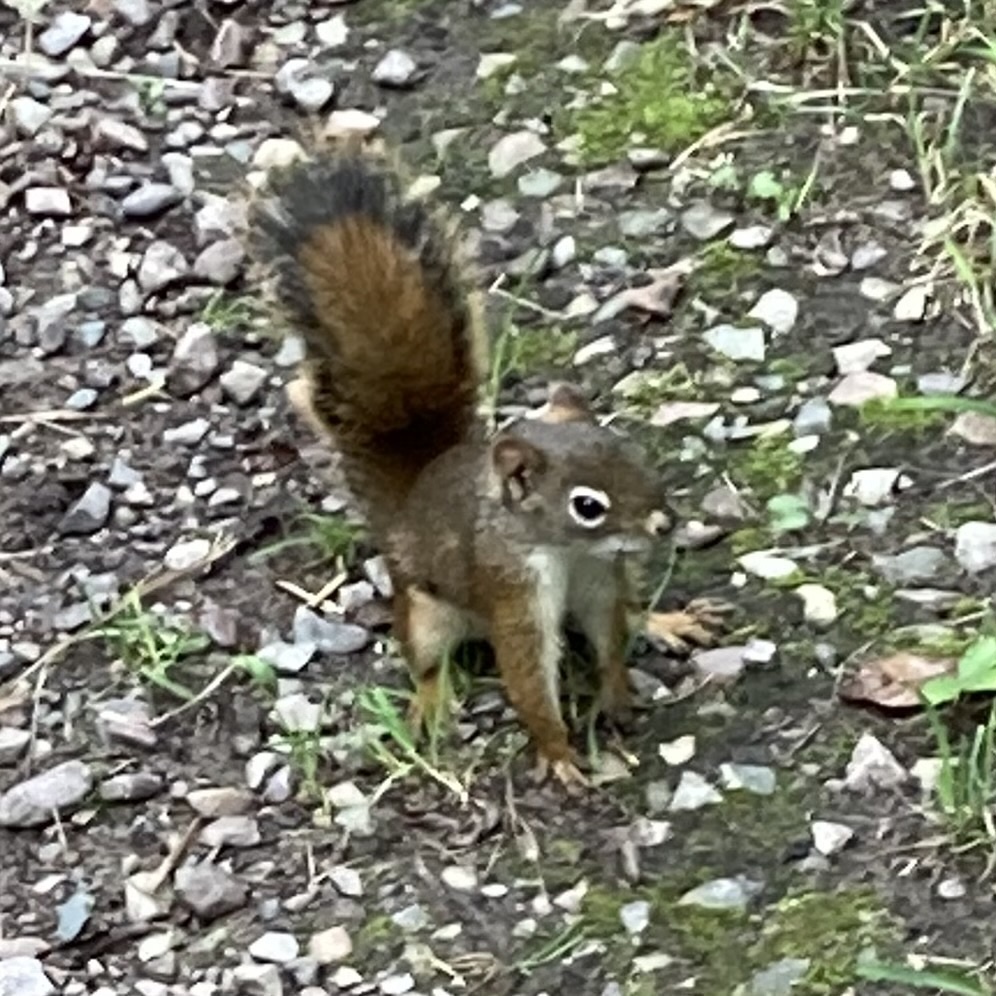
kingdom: Animalia
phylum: Chordata
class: Mammalia
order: Rodentia
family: Sciuridae
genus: Tamiasciurus
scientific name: Tamiasciurus hudsonicus
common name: Red squirrel
